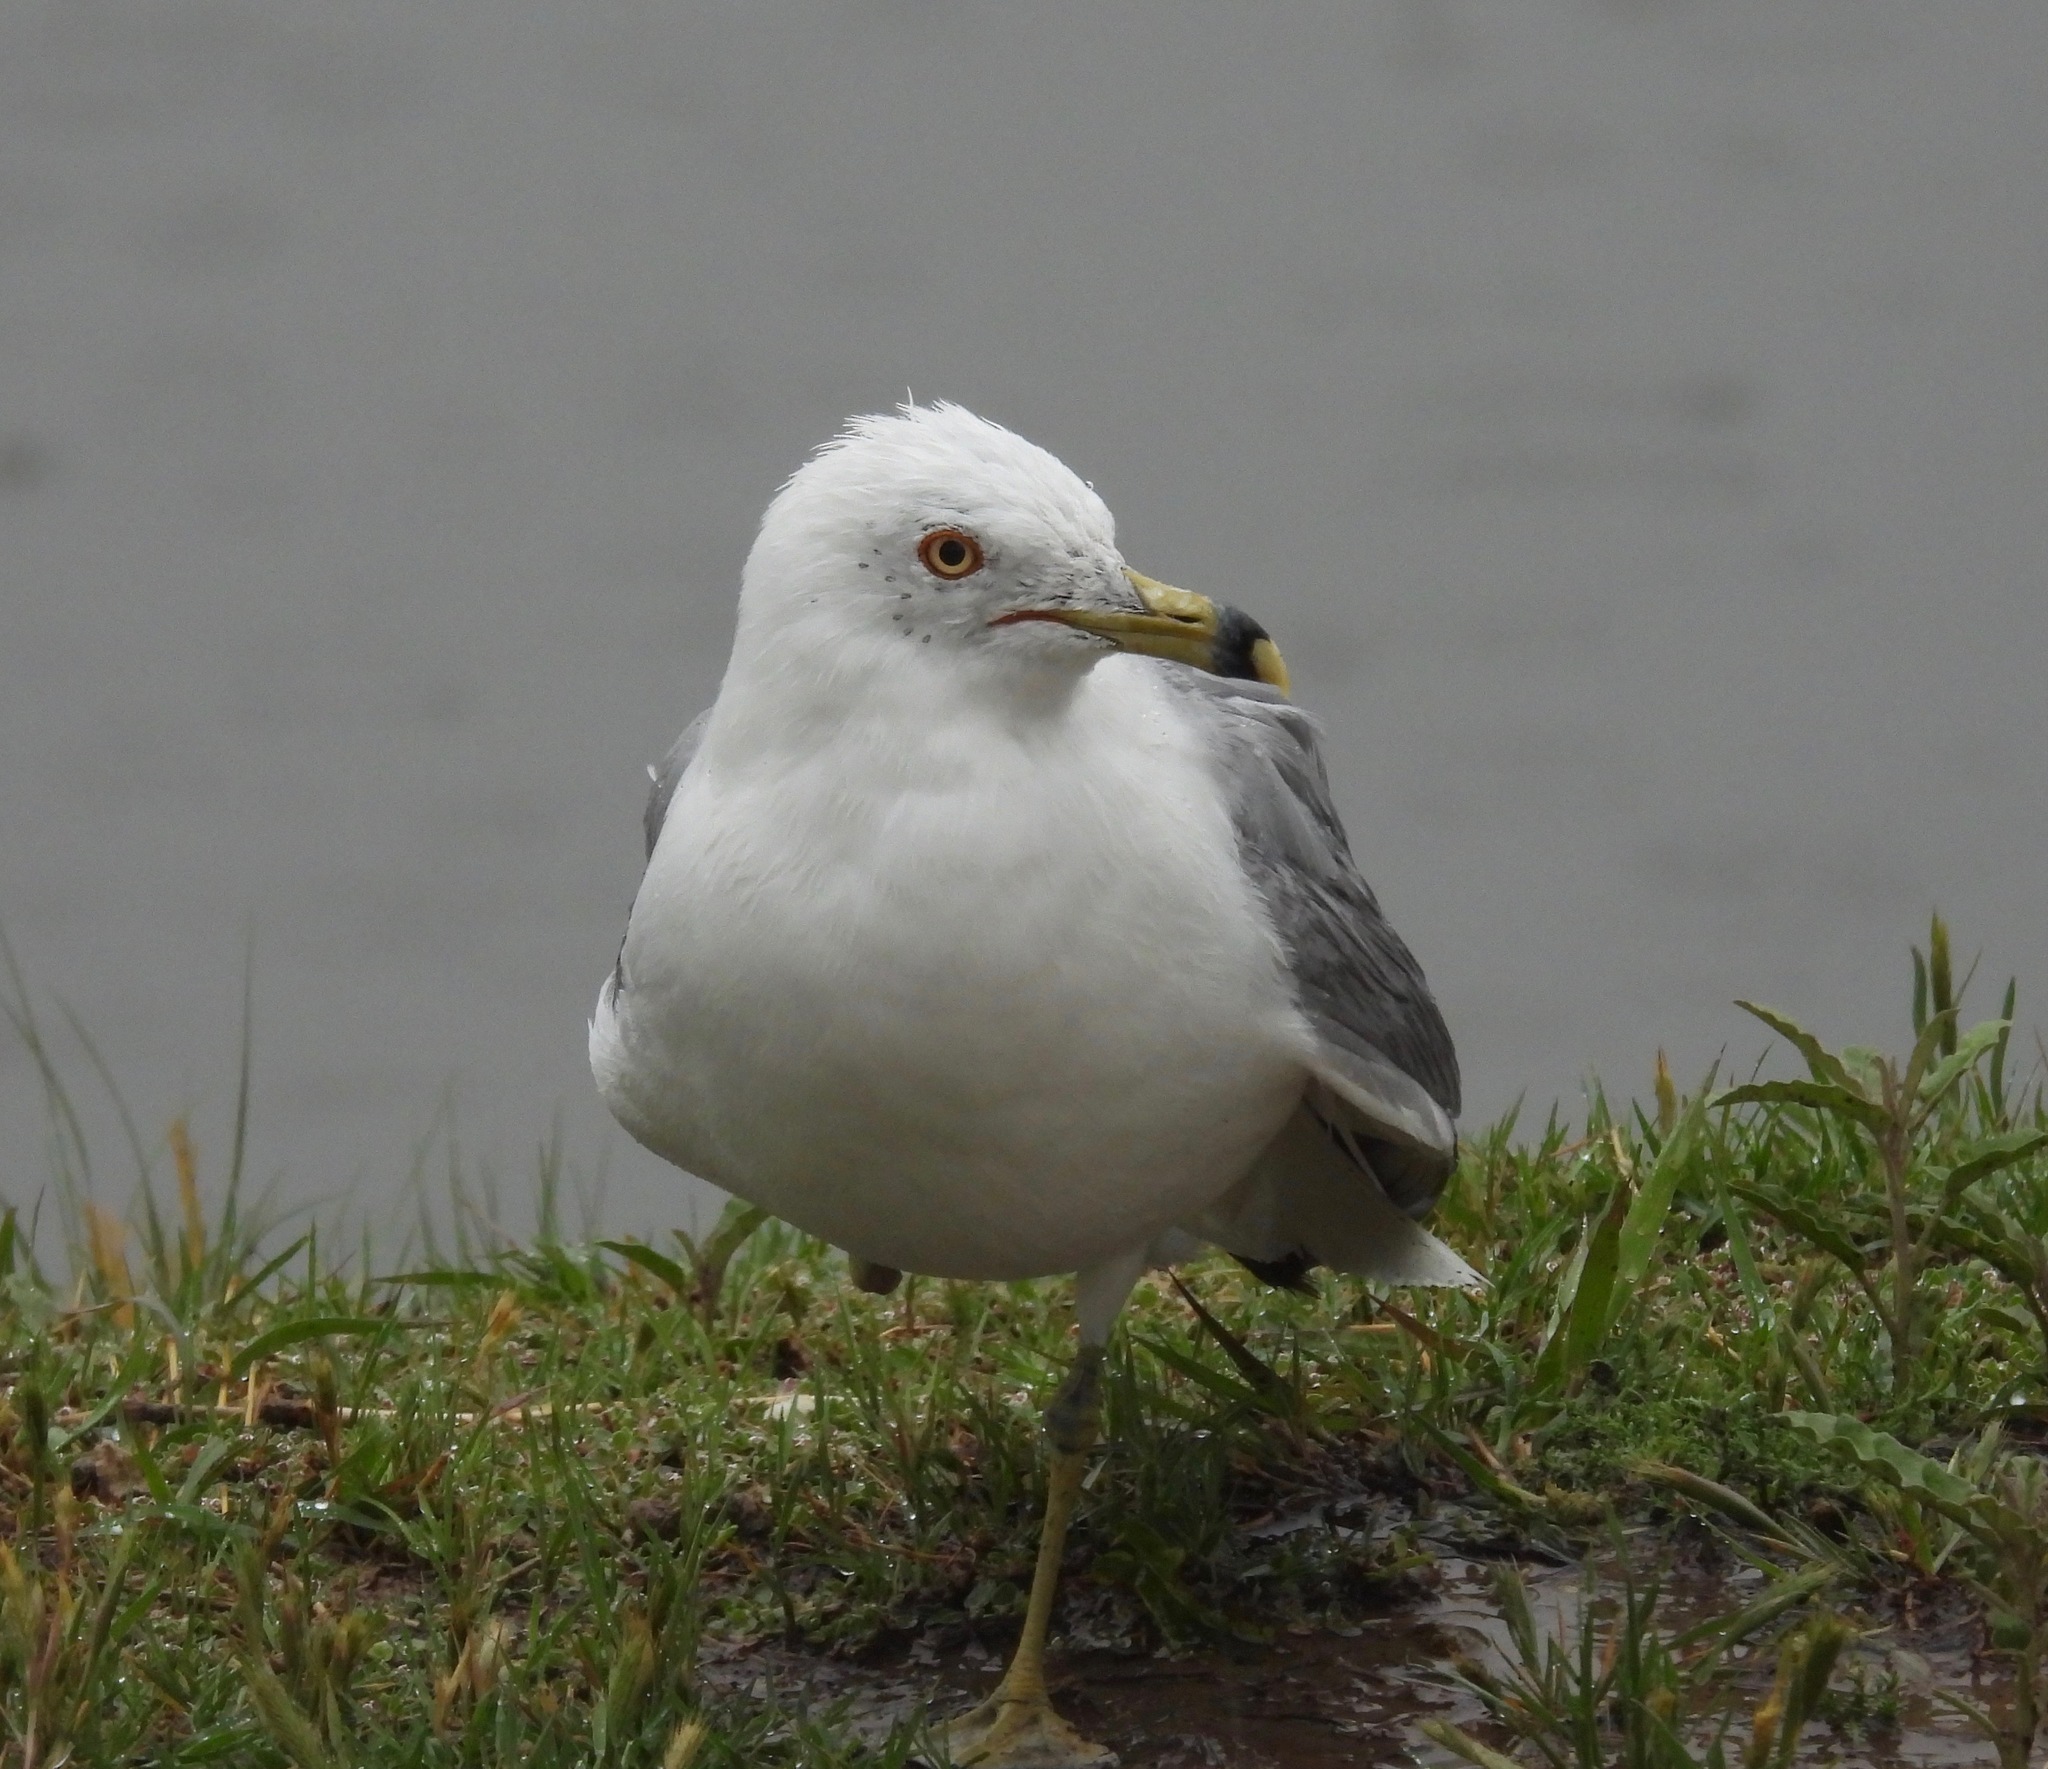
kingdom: Animalia
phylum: Chordata
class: Aves
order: Charadriiformes
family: Laridae
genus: Larus
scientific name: Larus delawarensis
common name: Ring-billed gull
